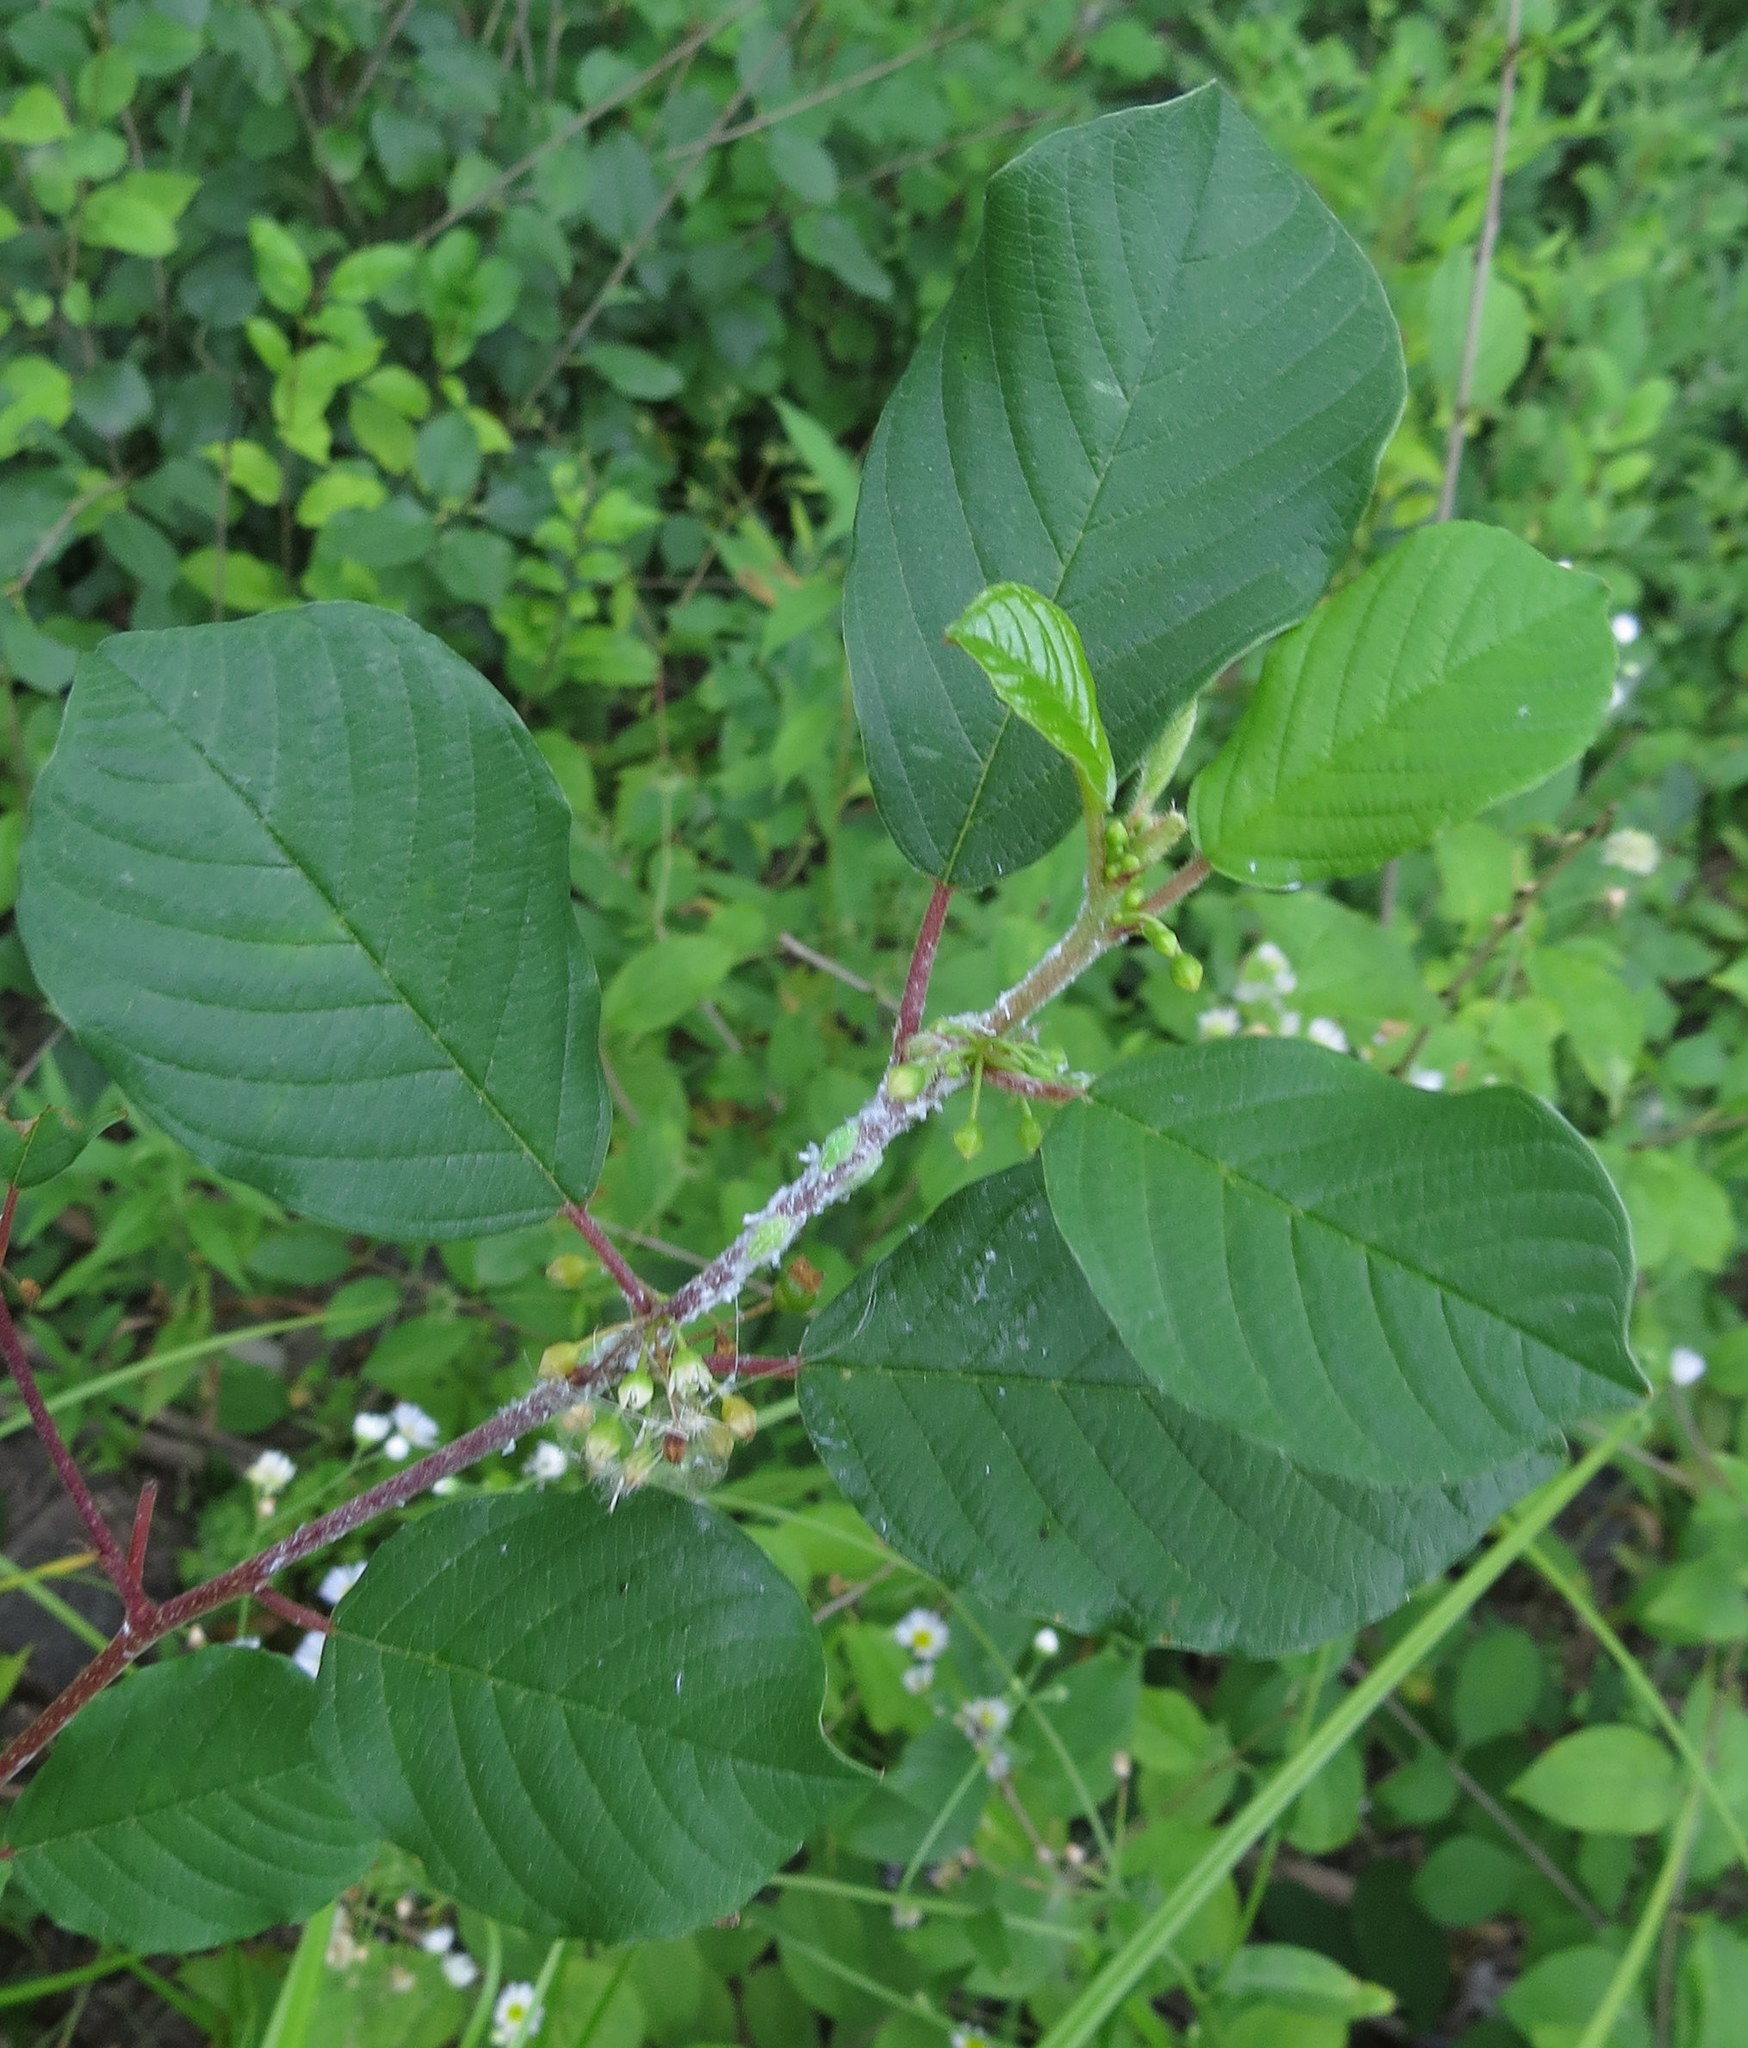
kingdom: Plantae
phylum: Tracheophyta
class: Magnoliopsida
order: Rosales
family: Rhamnaceae
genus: Frangula
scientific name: Frangula alnus
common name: Alder buckthorn
